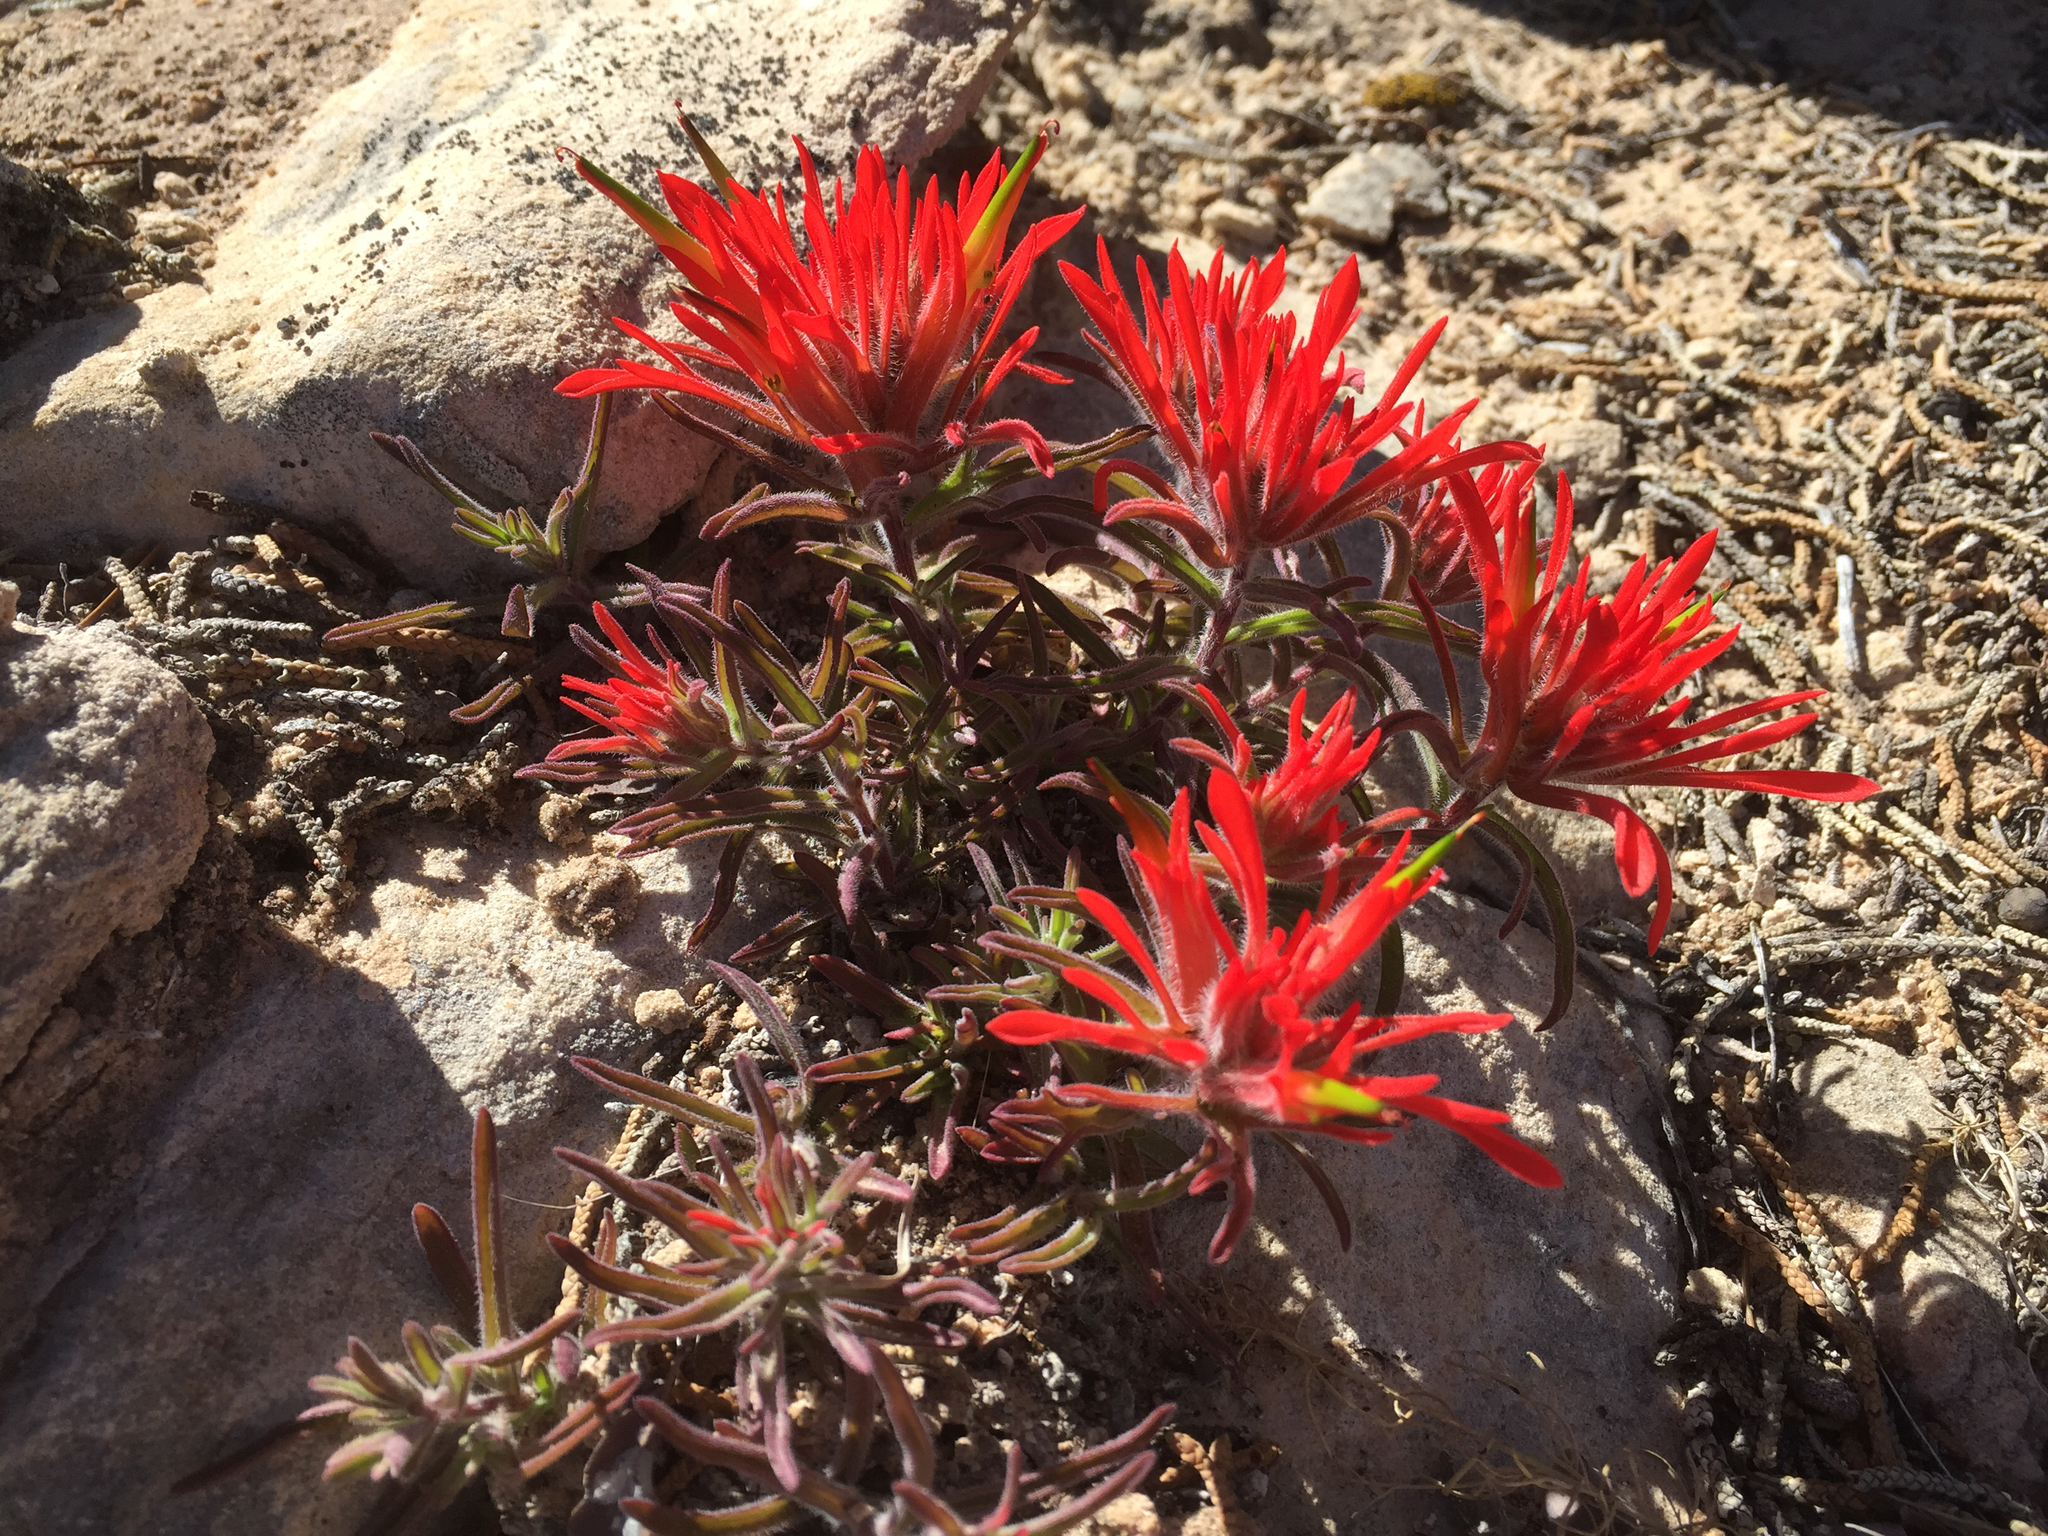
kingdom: Plantae
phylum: Tracheophyta
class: Magnoliopsida
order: Lamiales
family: Orobanchaceae
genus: Castilleja
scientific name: Castilleja scabrida
